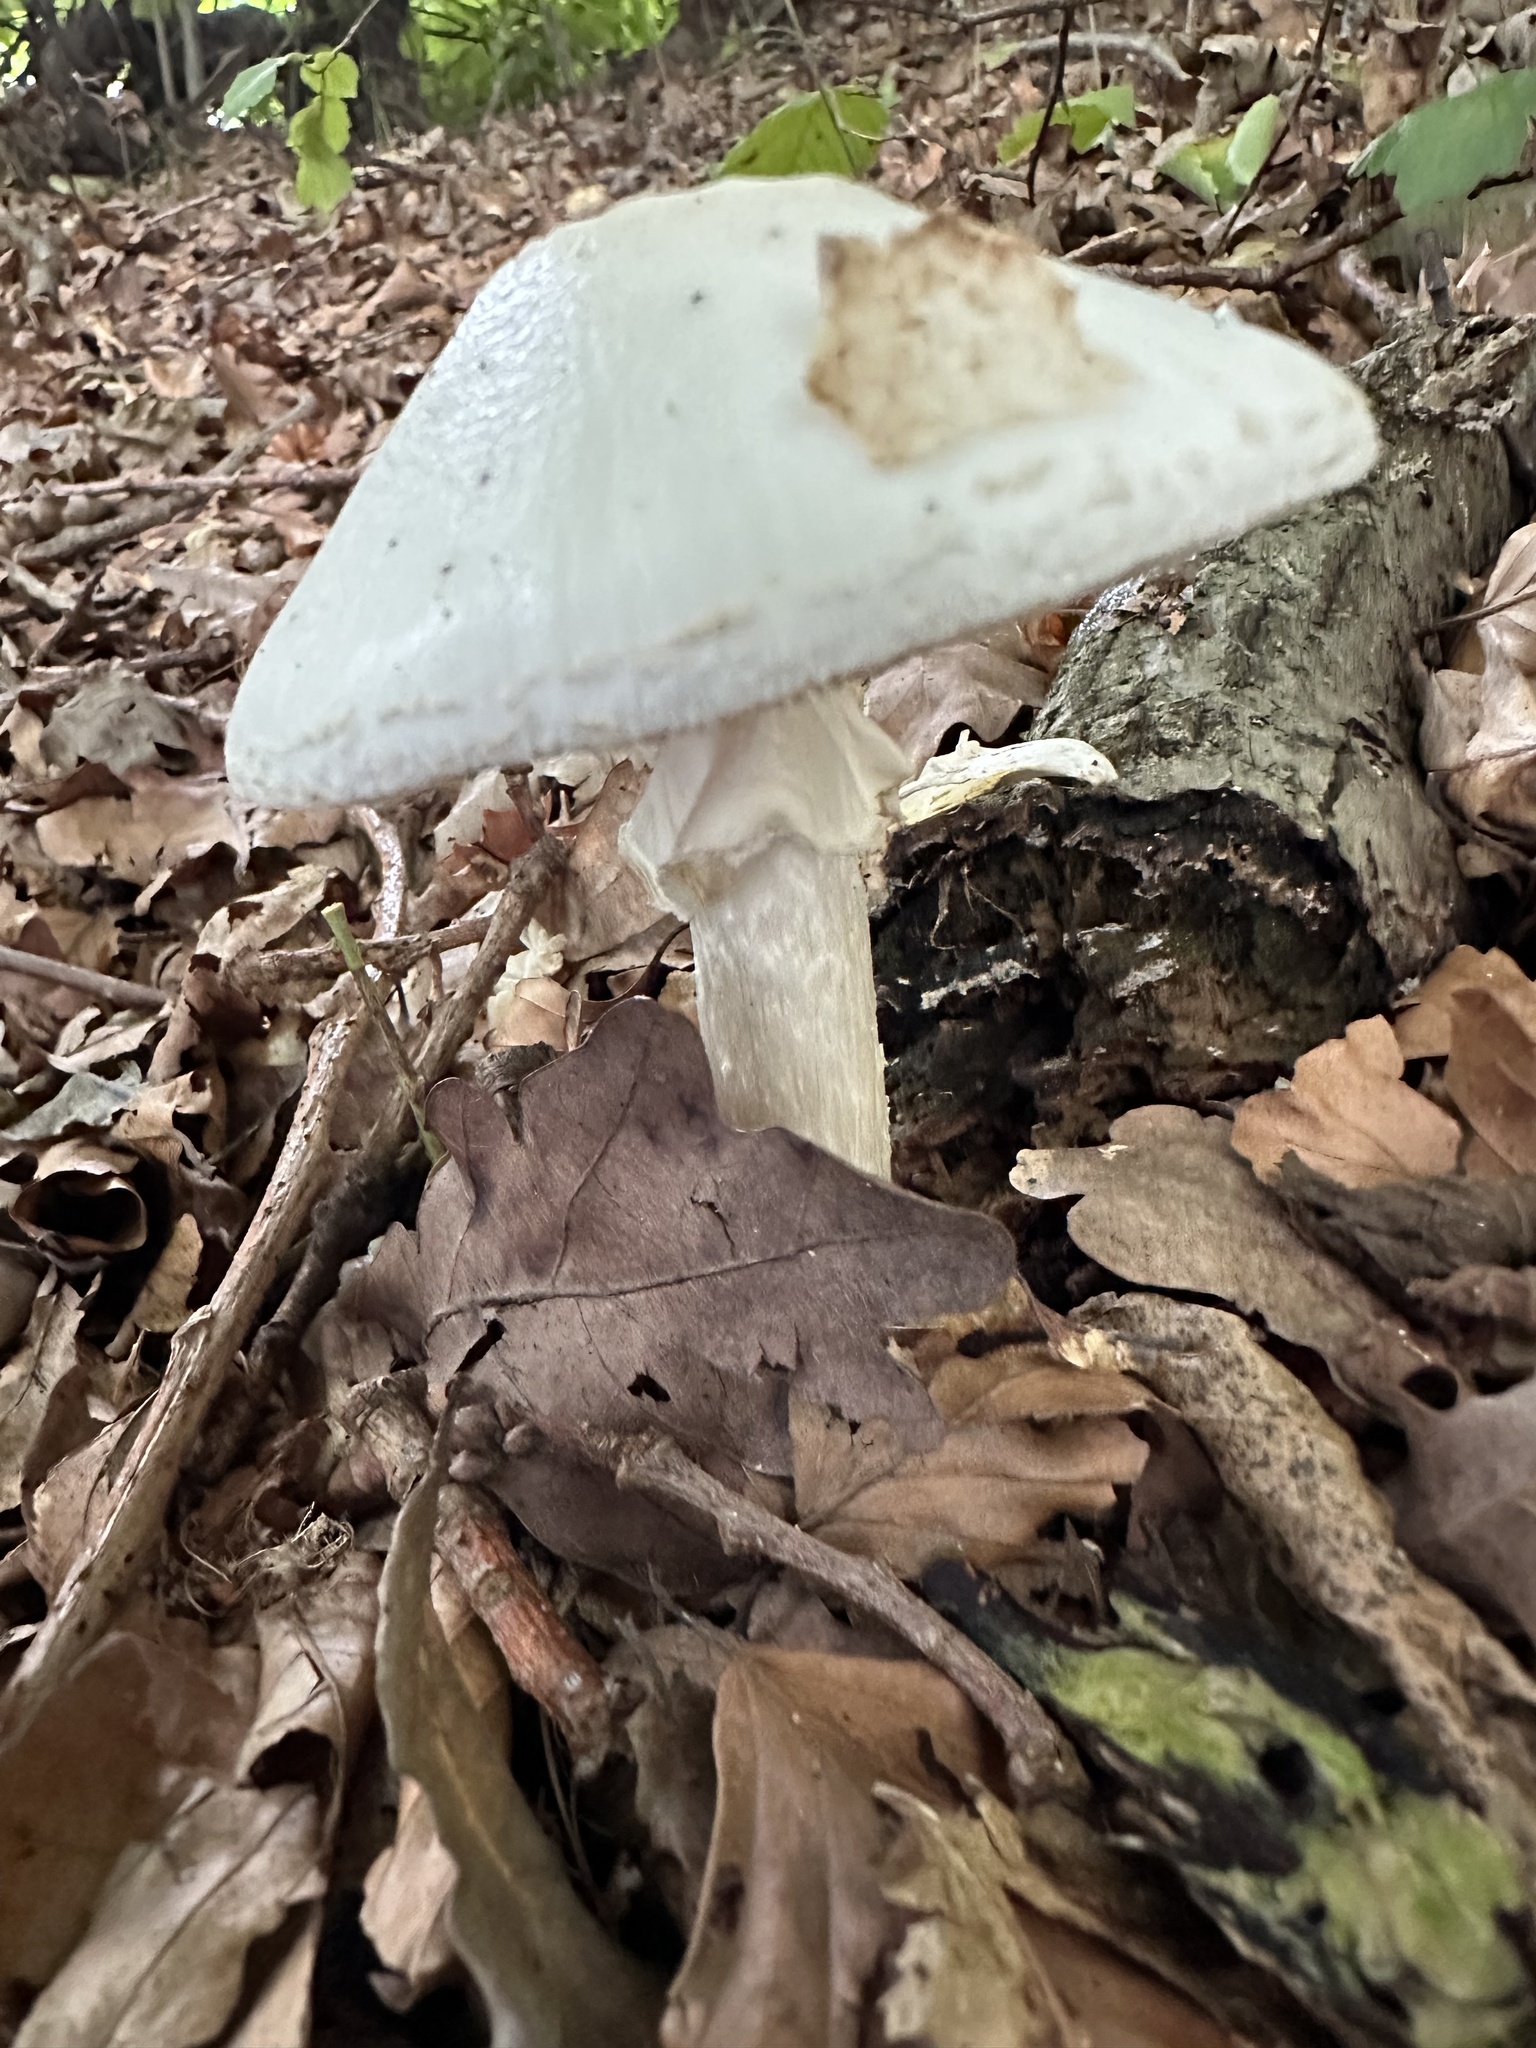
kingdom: Fungi
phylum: Basidiomycota
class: Agaricomycetes
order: Agaricales
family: Amanitaceae
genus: Amanita
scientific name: Amanita virosa
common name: Destroying angel
